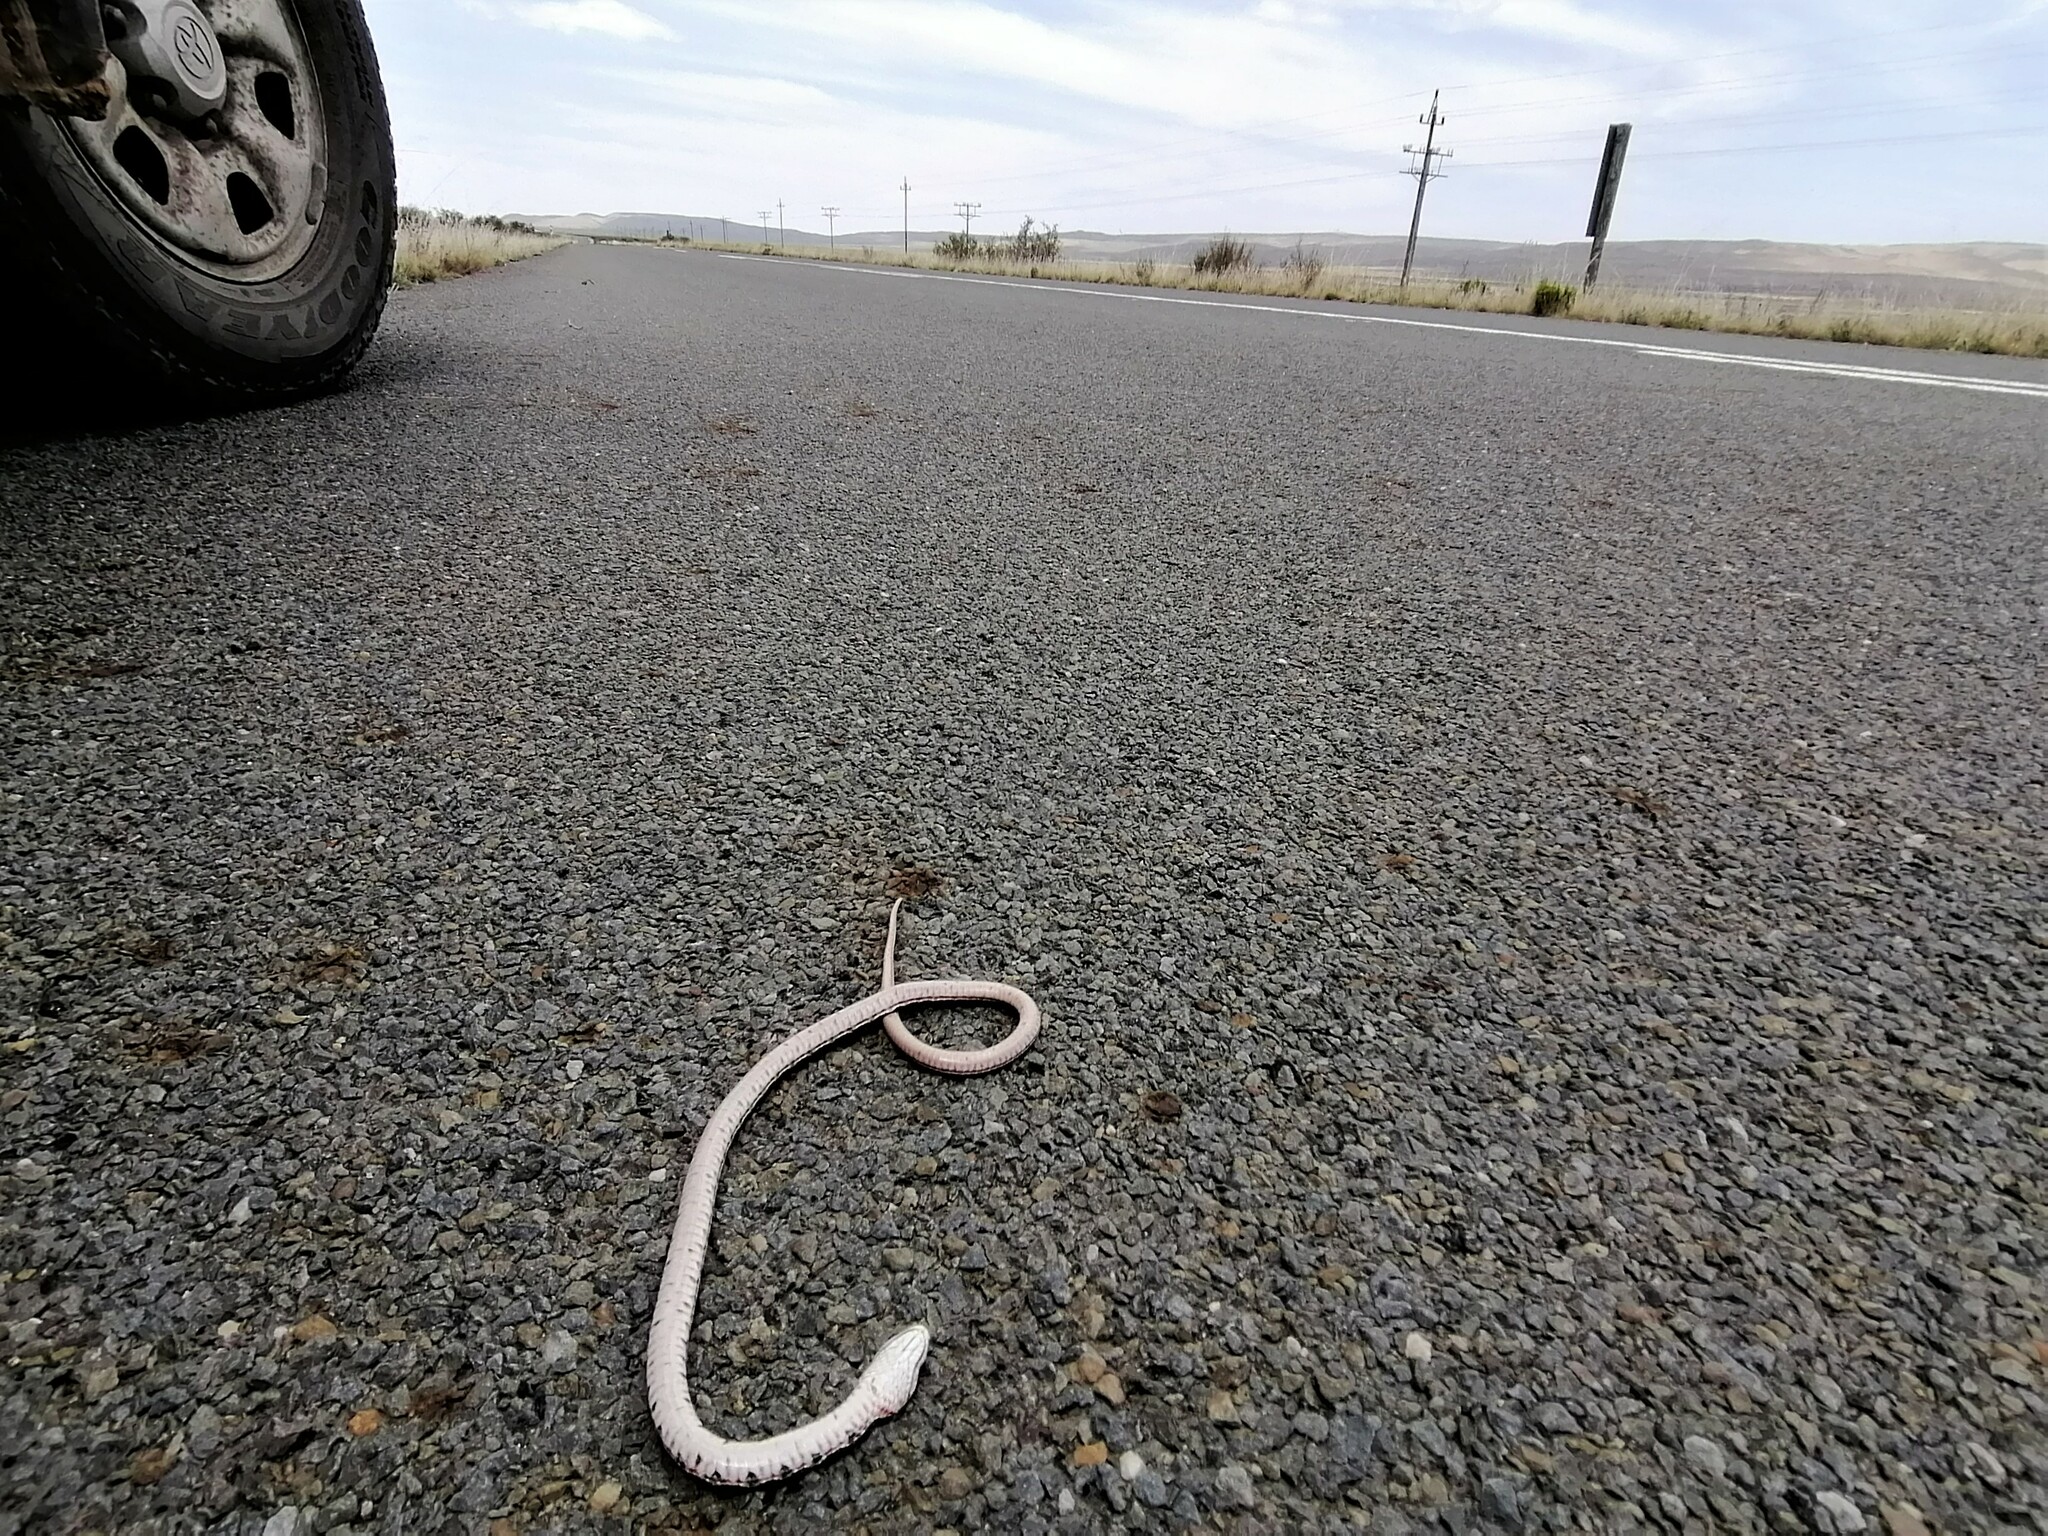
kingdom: Animalia
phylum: Chordata
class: Squamata
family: Psammophiidae
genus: Psammophylax
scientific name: Psammophylax rhombeatus
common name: Rhombic skaapsteker
